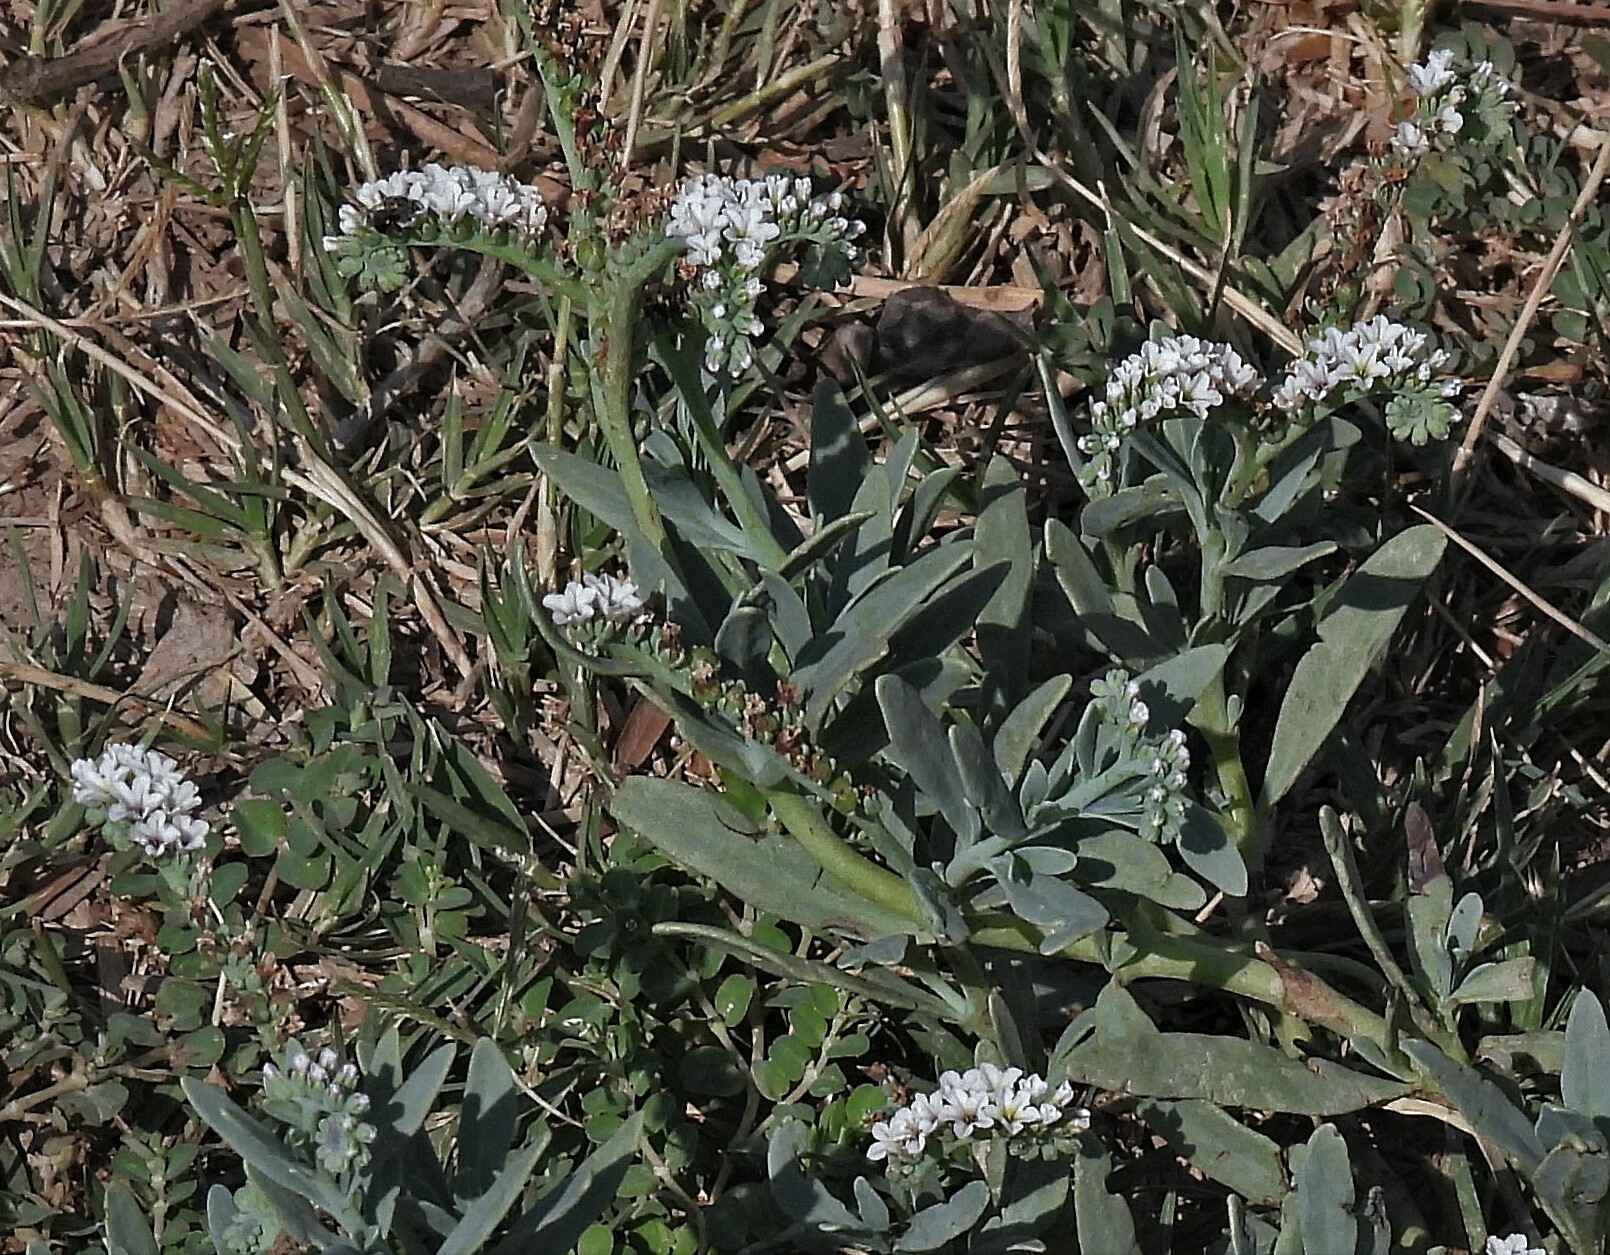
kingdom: Plantae
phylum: Tracheophyta
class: Magnoliopsida
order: Boraginales
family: Heliotropiaceae
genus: Heliotropium
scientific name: Heliotropium curassavicum
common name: Seaside heliotrope
